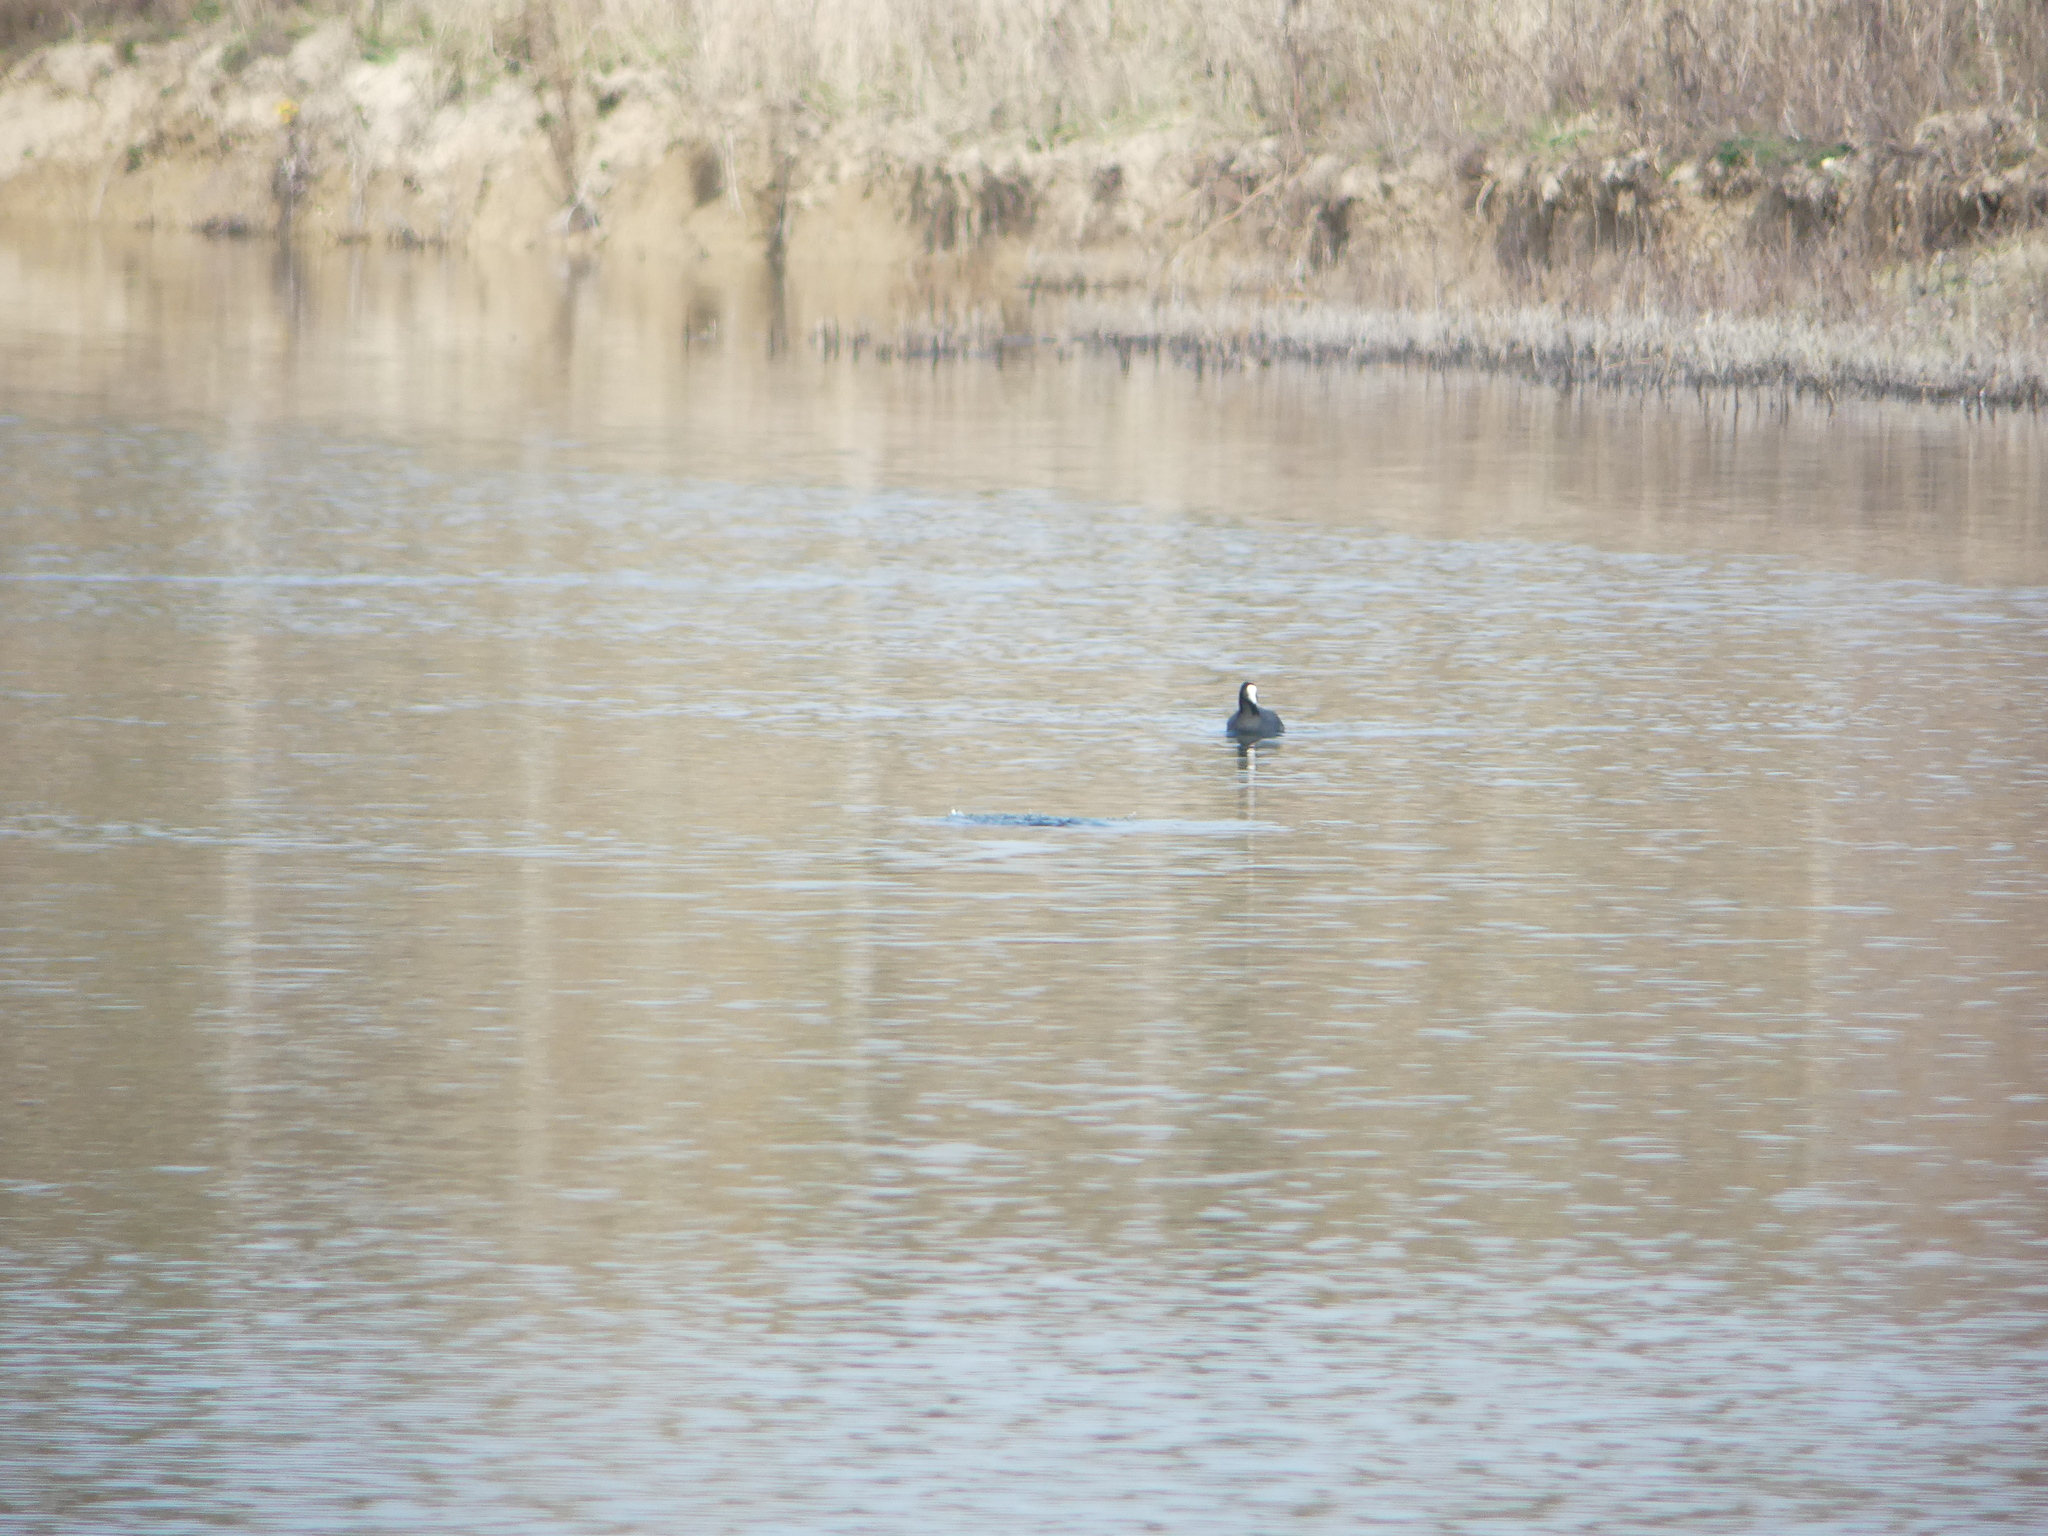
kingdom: Animalia
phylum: Chordata
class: Aves
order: Gruiformes
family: Rallidae
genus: Fulica
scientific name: Fulica atra
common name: Eurasian coot
